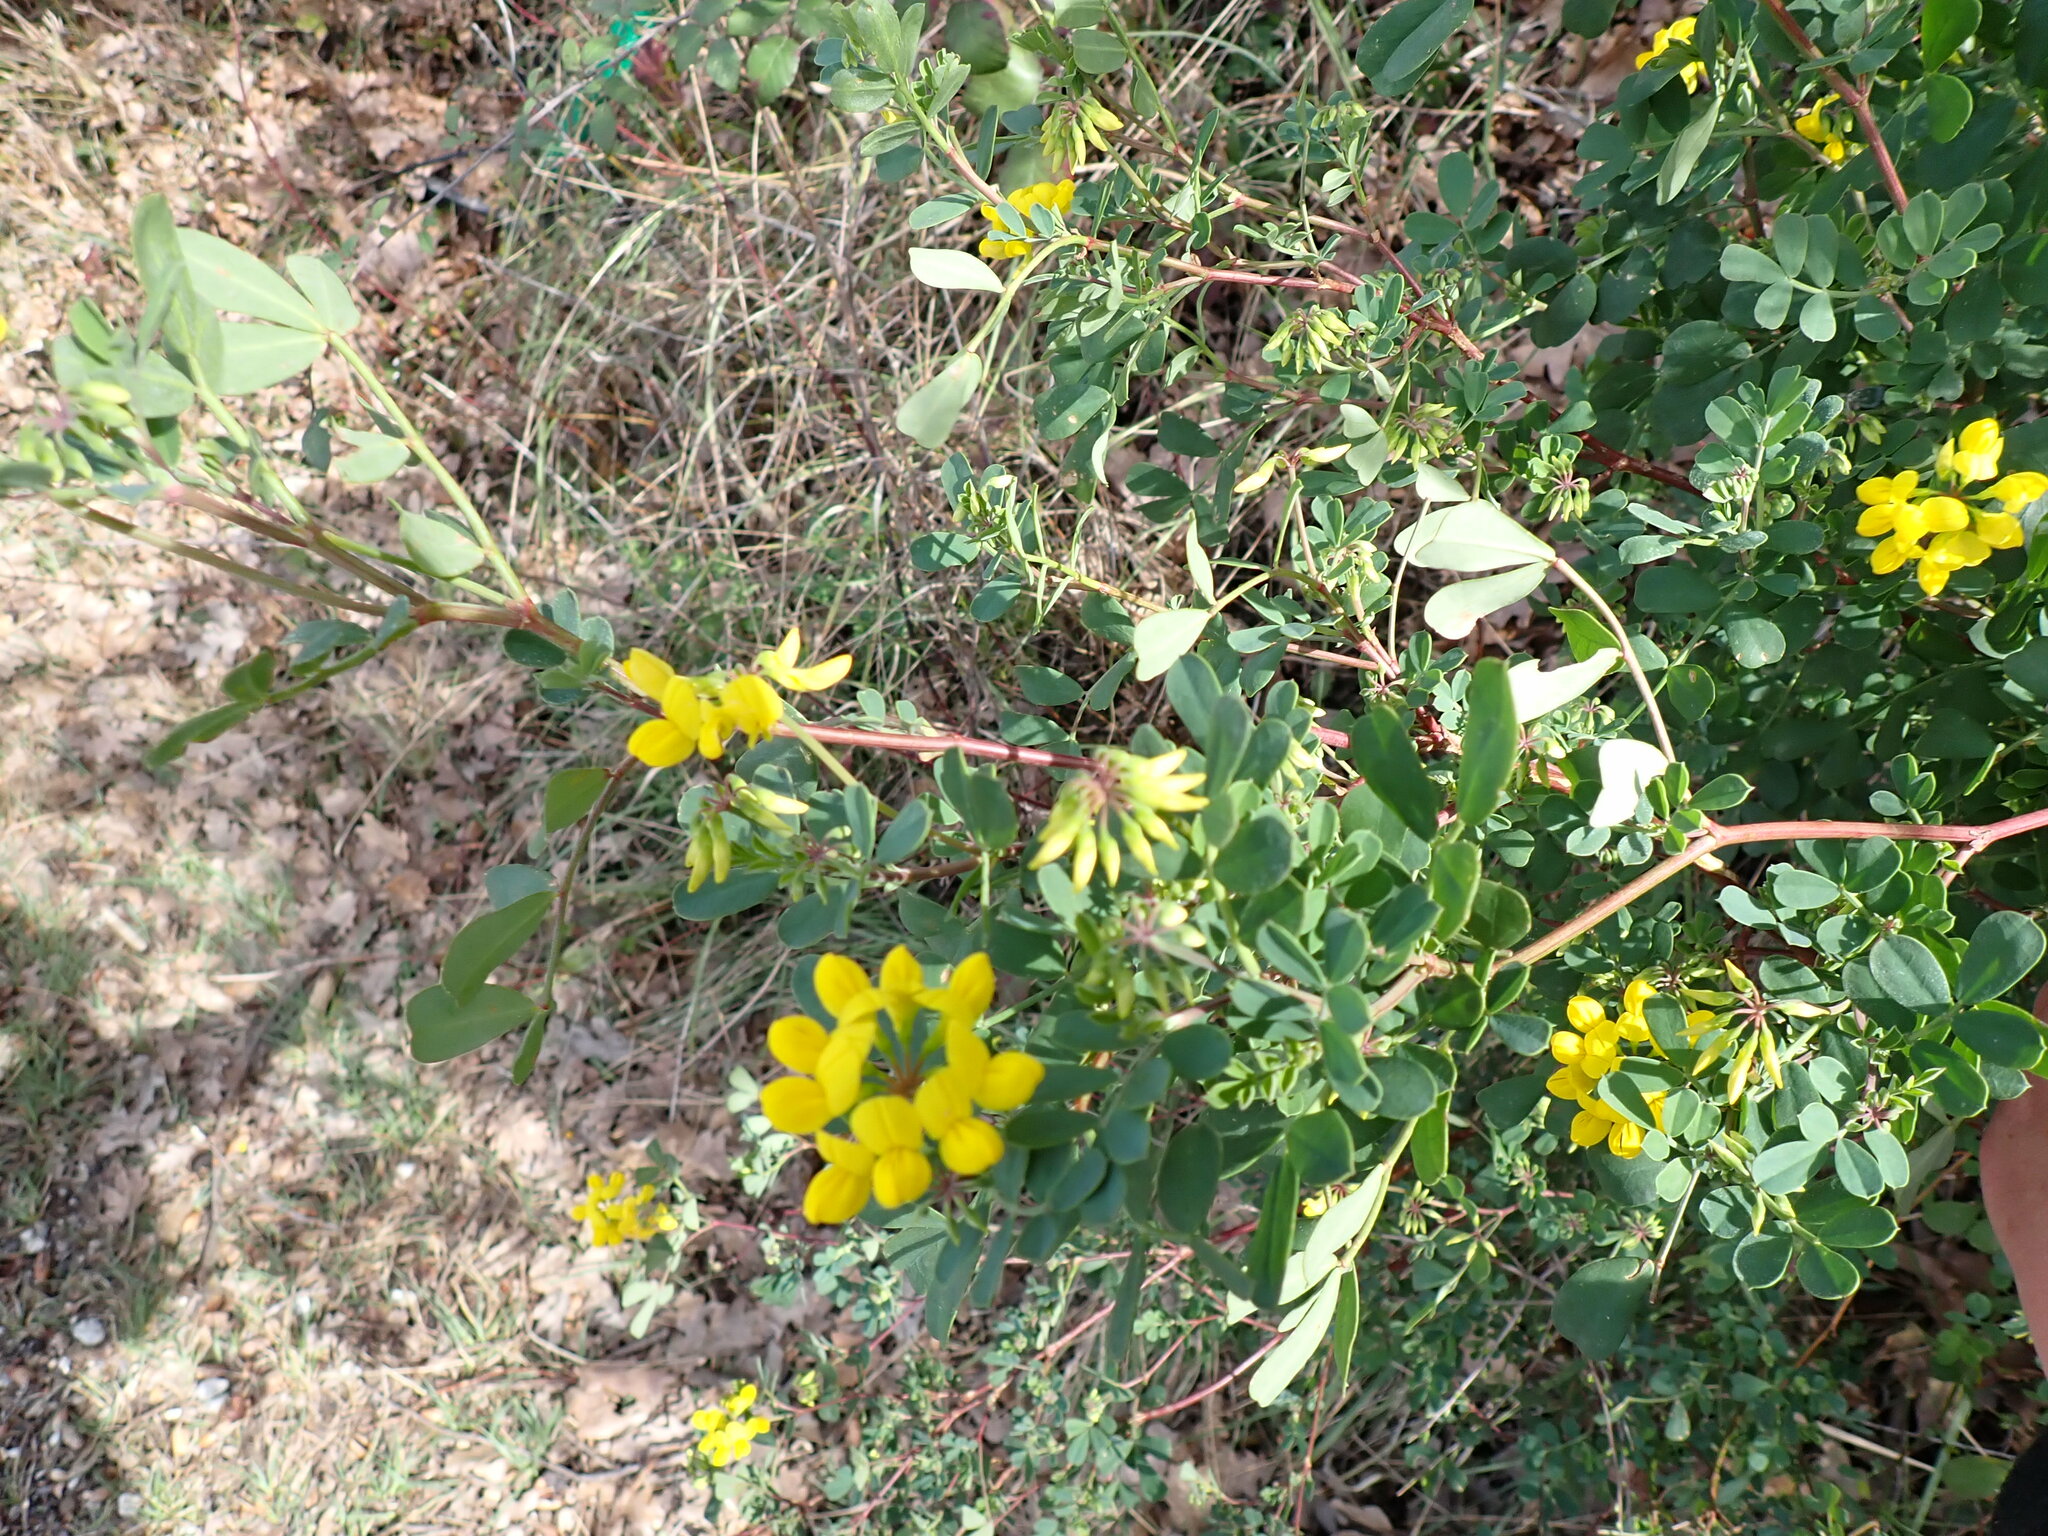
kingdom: Plantae
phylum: Tracheophyta
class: Magnoliopsida
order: Fabales
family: Fabaceae
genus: Coronilla
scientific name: Coronilla valentina
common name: Shrubby scorpion-vetch
